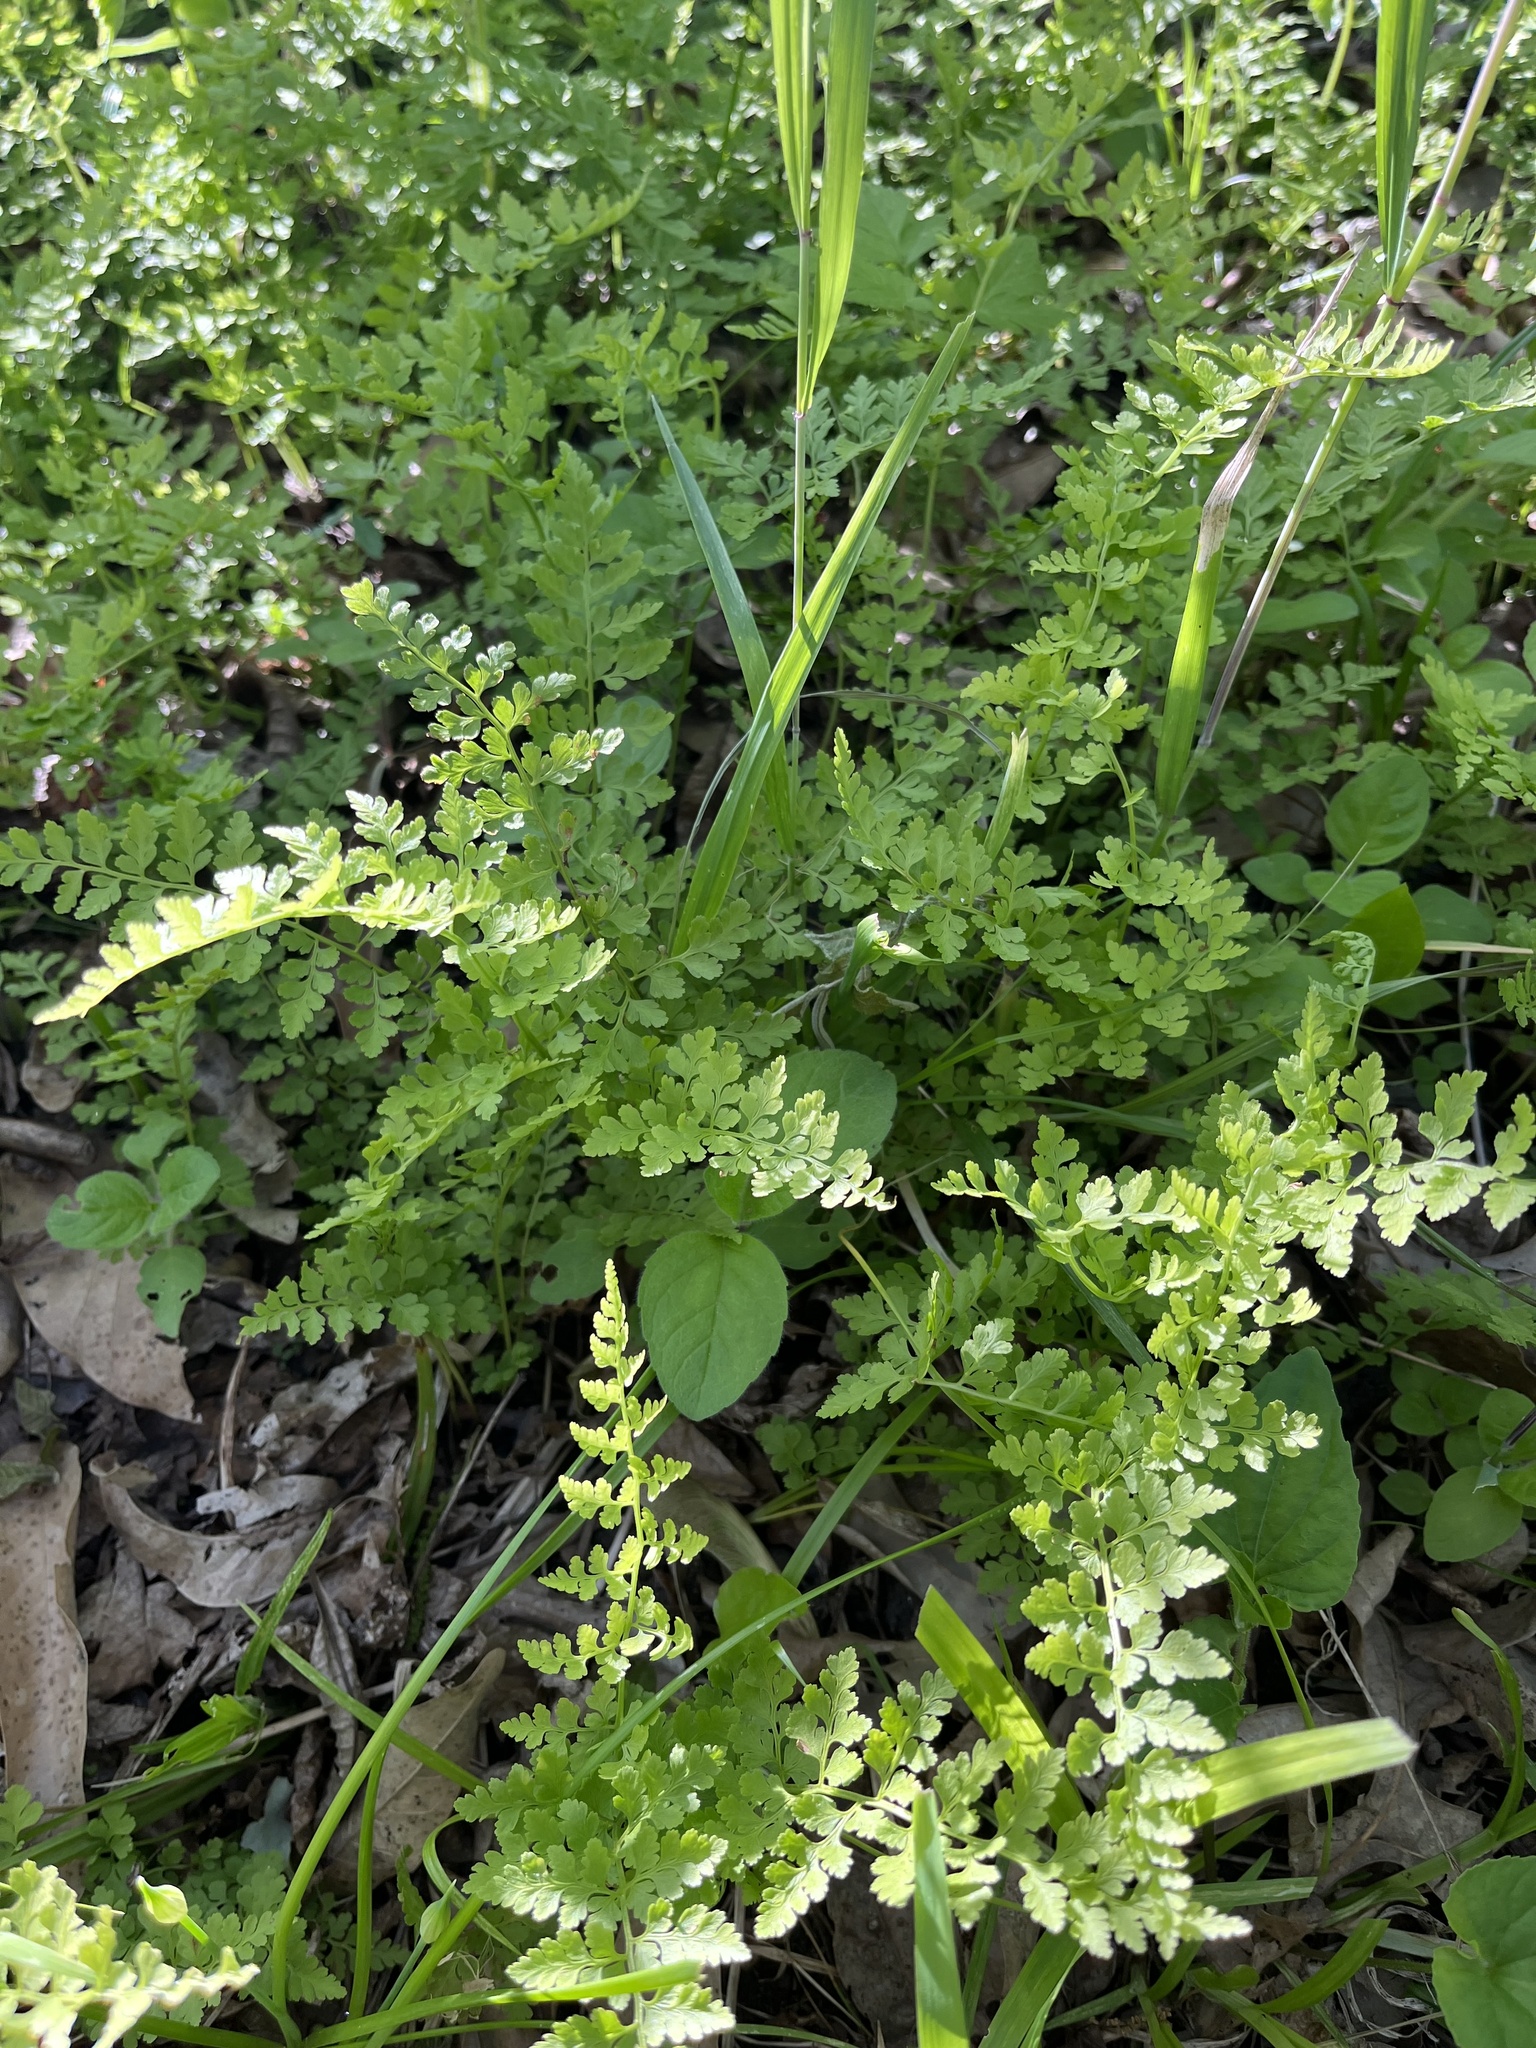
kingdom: Plantae
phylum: Tracheophyta
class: Polypodiopsida
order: Polypodiales
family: Cystopteridaceae
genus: Cystopteris
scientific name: Cystopteris protrusa
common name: Lowland brittle fern
